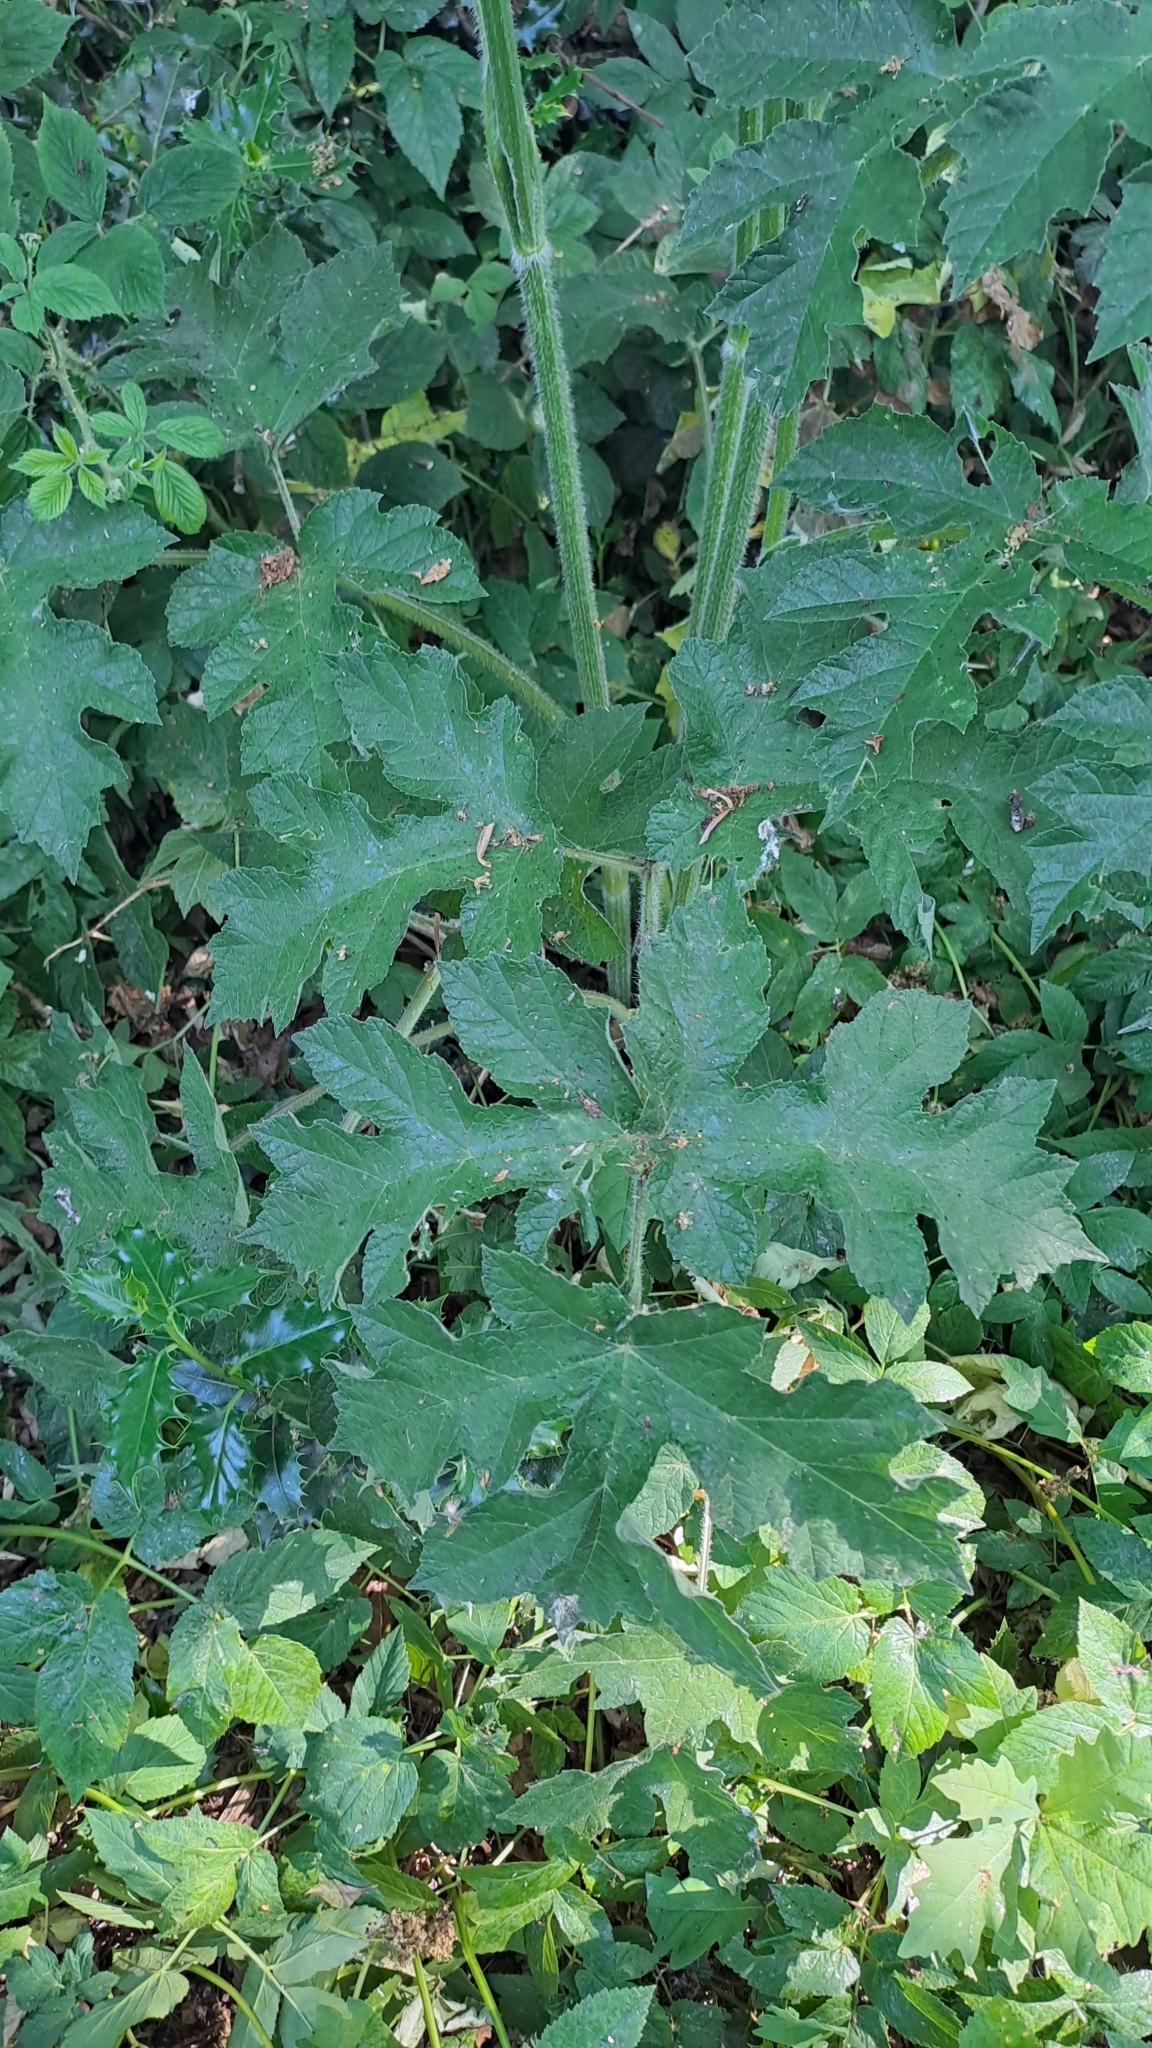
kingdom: Plantae
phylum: Tracheophyta
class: Magnoliopsida
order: Apiales
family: Apiaceae
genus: Heracleum
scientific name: Heracleum sphondylium
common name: Hogweed
